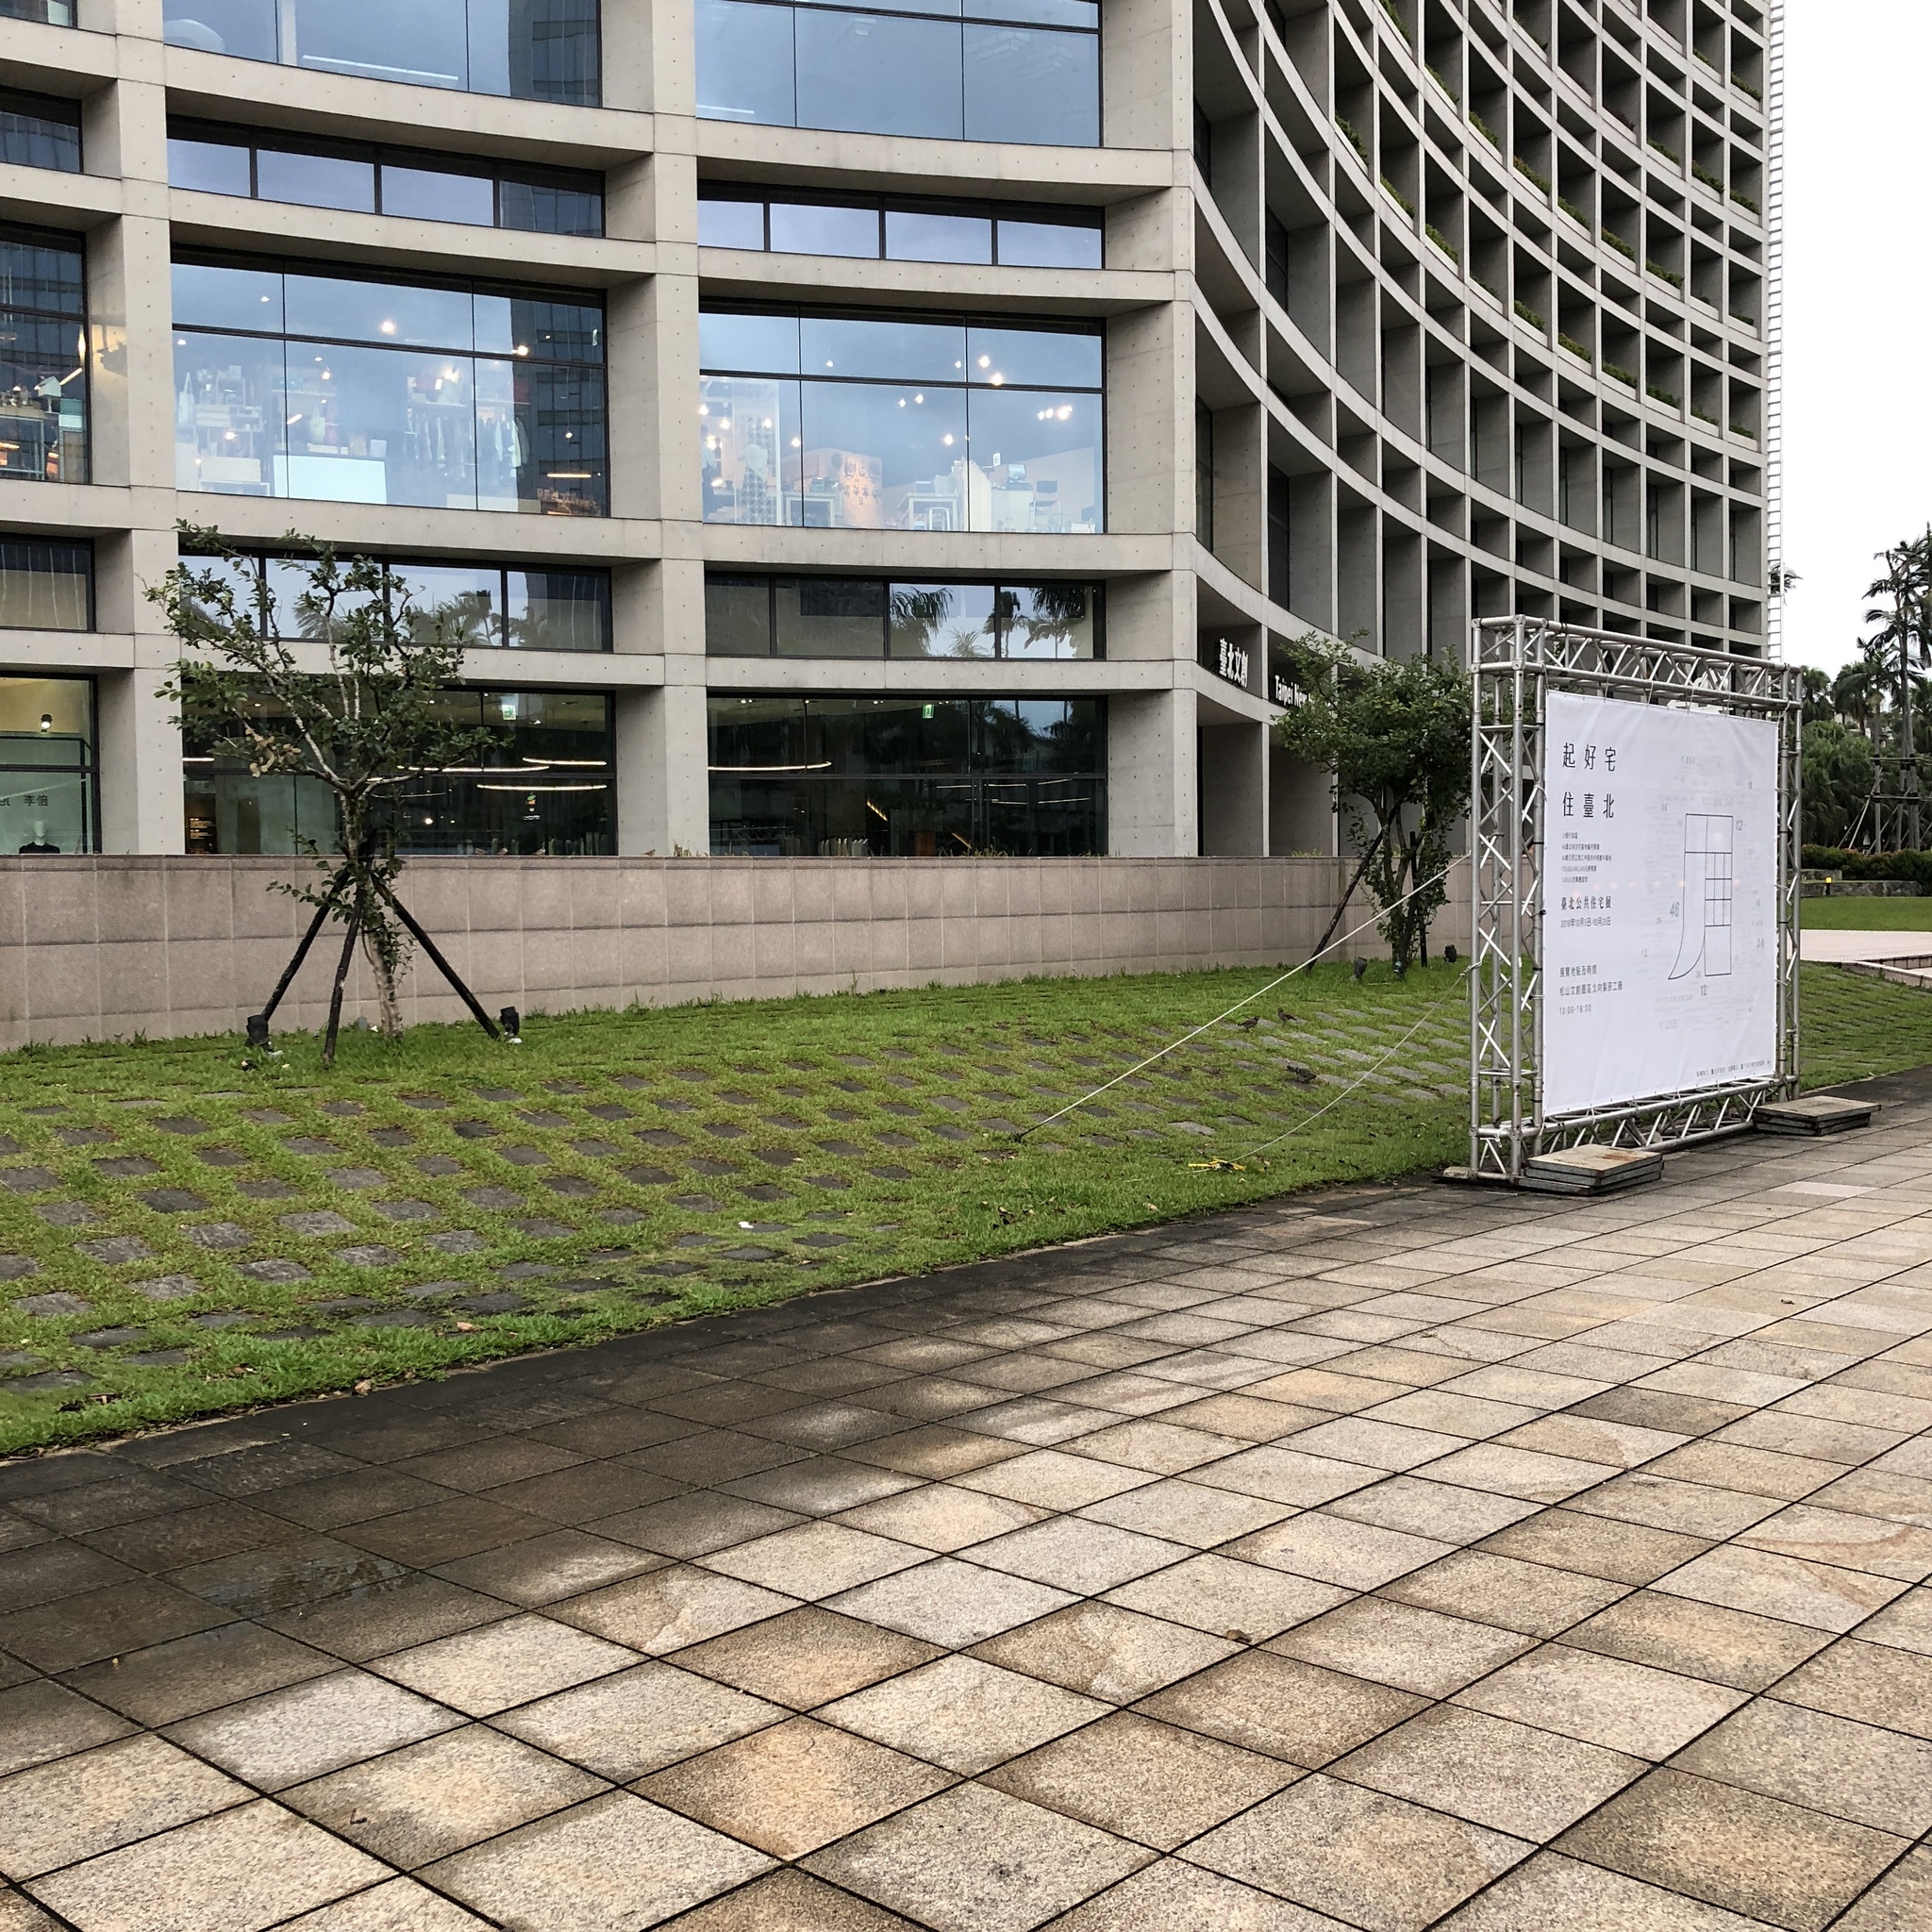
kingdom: Animalia
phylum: Chordata
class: Aves
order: Passeriformes
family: Passeridae
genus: Passer
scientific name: Passer montanus
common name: Eurasian tree sparrow
